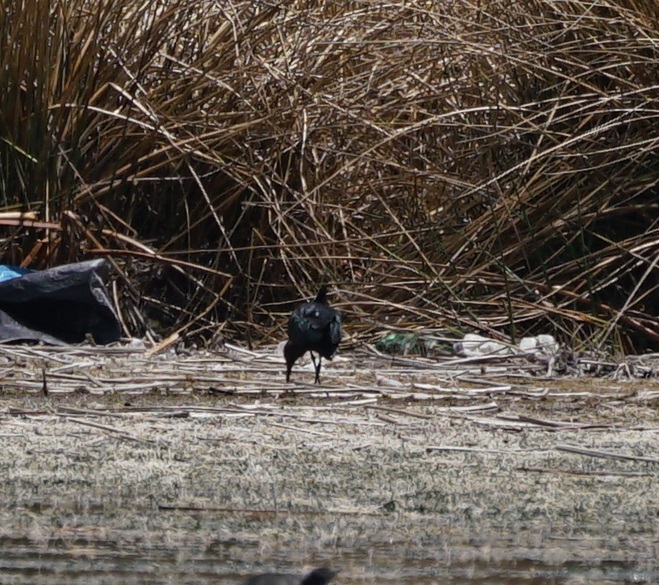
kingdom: Animalia
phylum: Chordata
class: Aves
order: Pelecaniformes
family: Threskiornithidae
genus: Plegadis
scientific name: Plegadis ridgwayi
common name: Puna ibis
